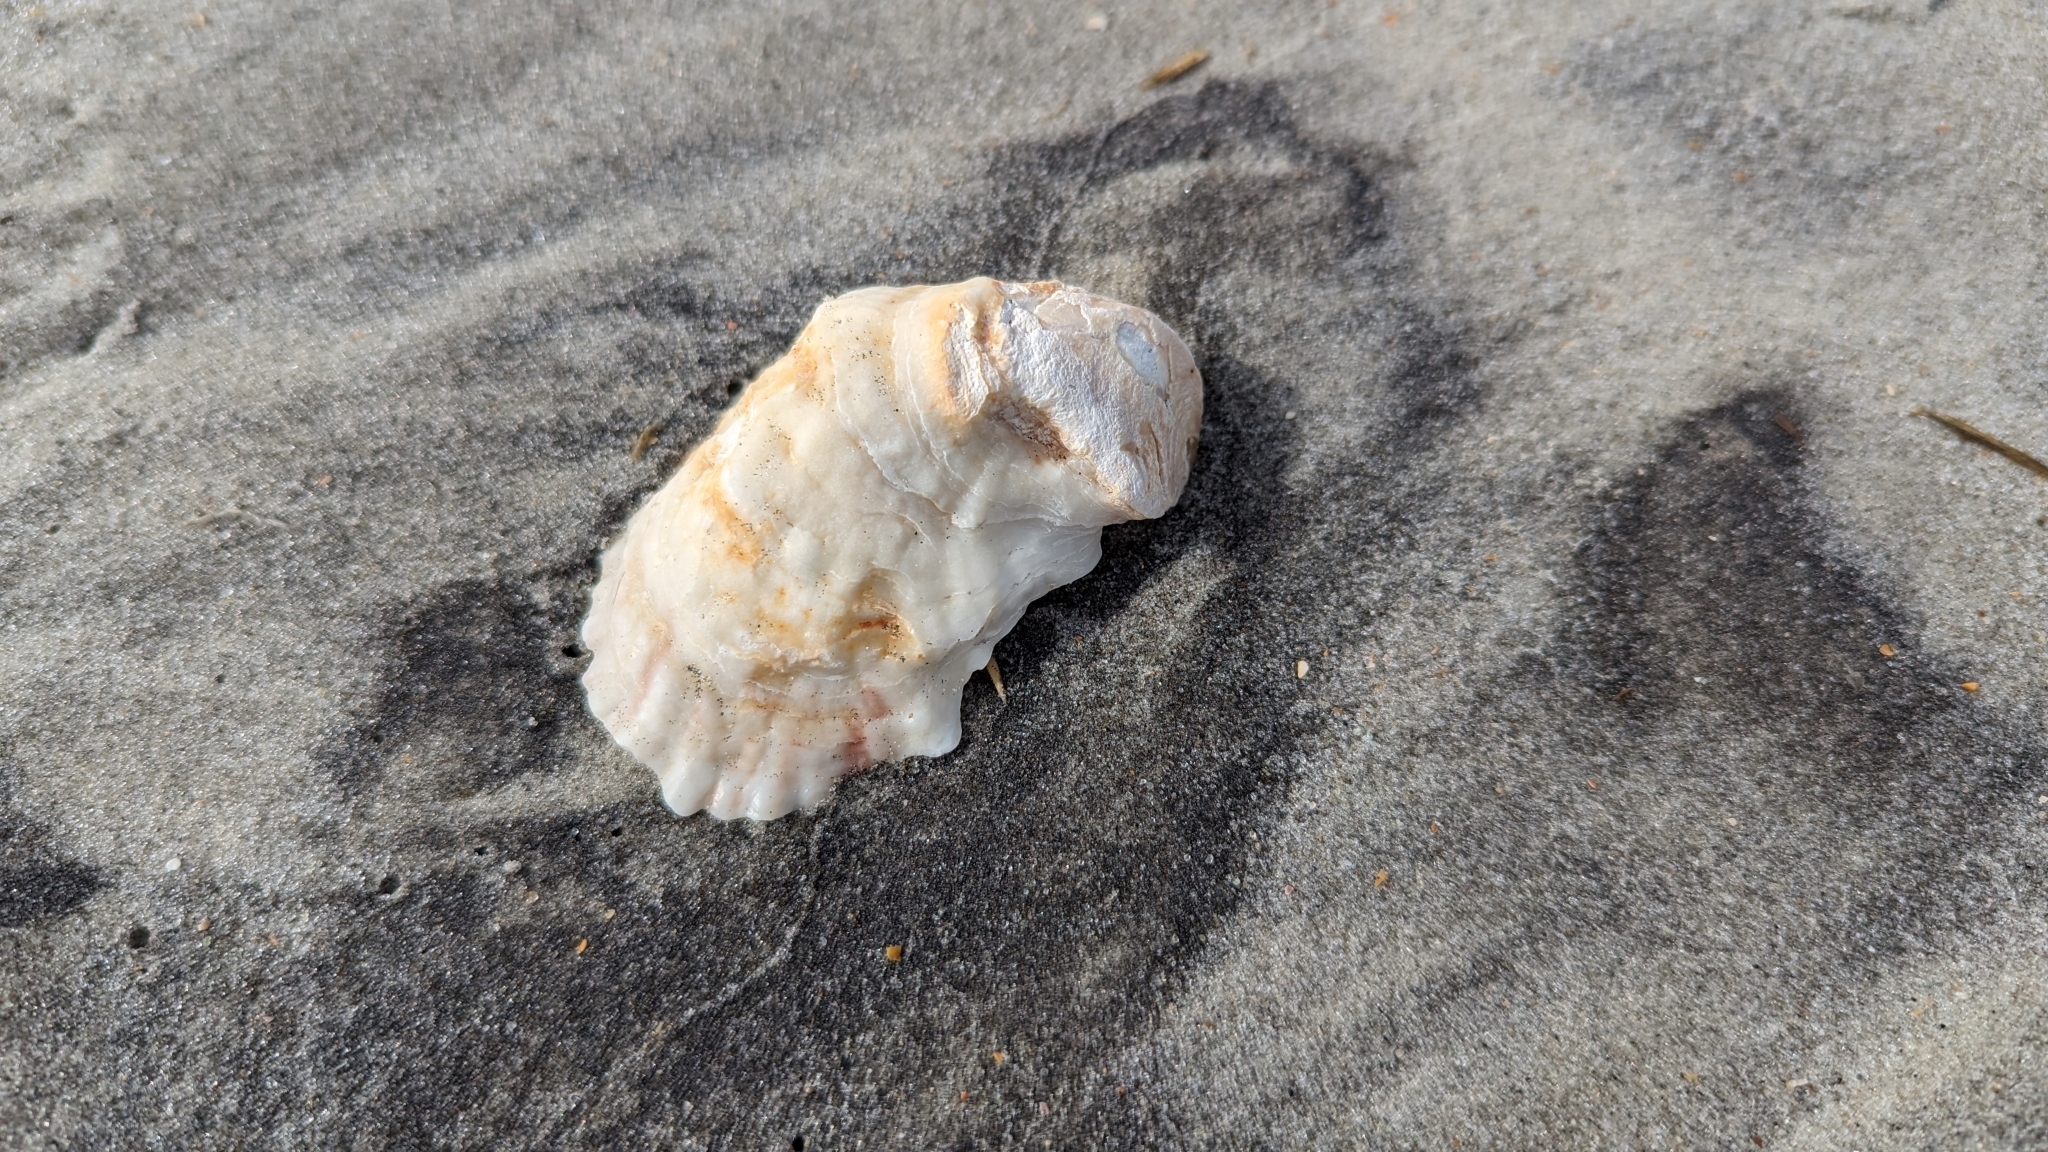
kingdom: Animalia
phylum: Mollusca
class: Bivalvia
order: Ostreida
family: Ostreidae
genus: Crassostrea
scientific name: Crassostrea virginica
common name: American oyster
